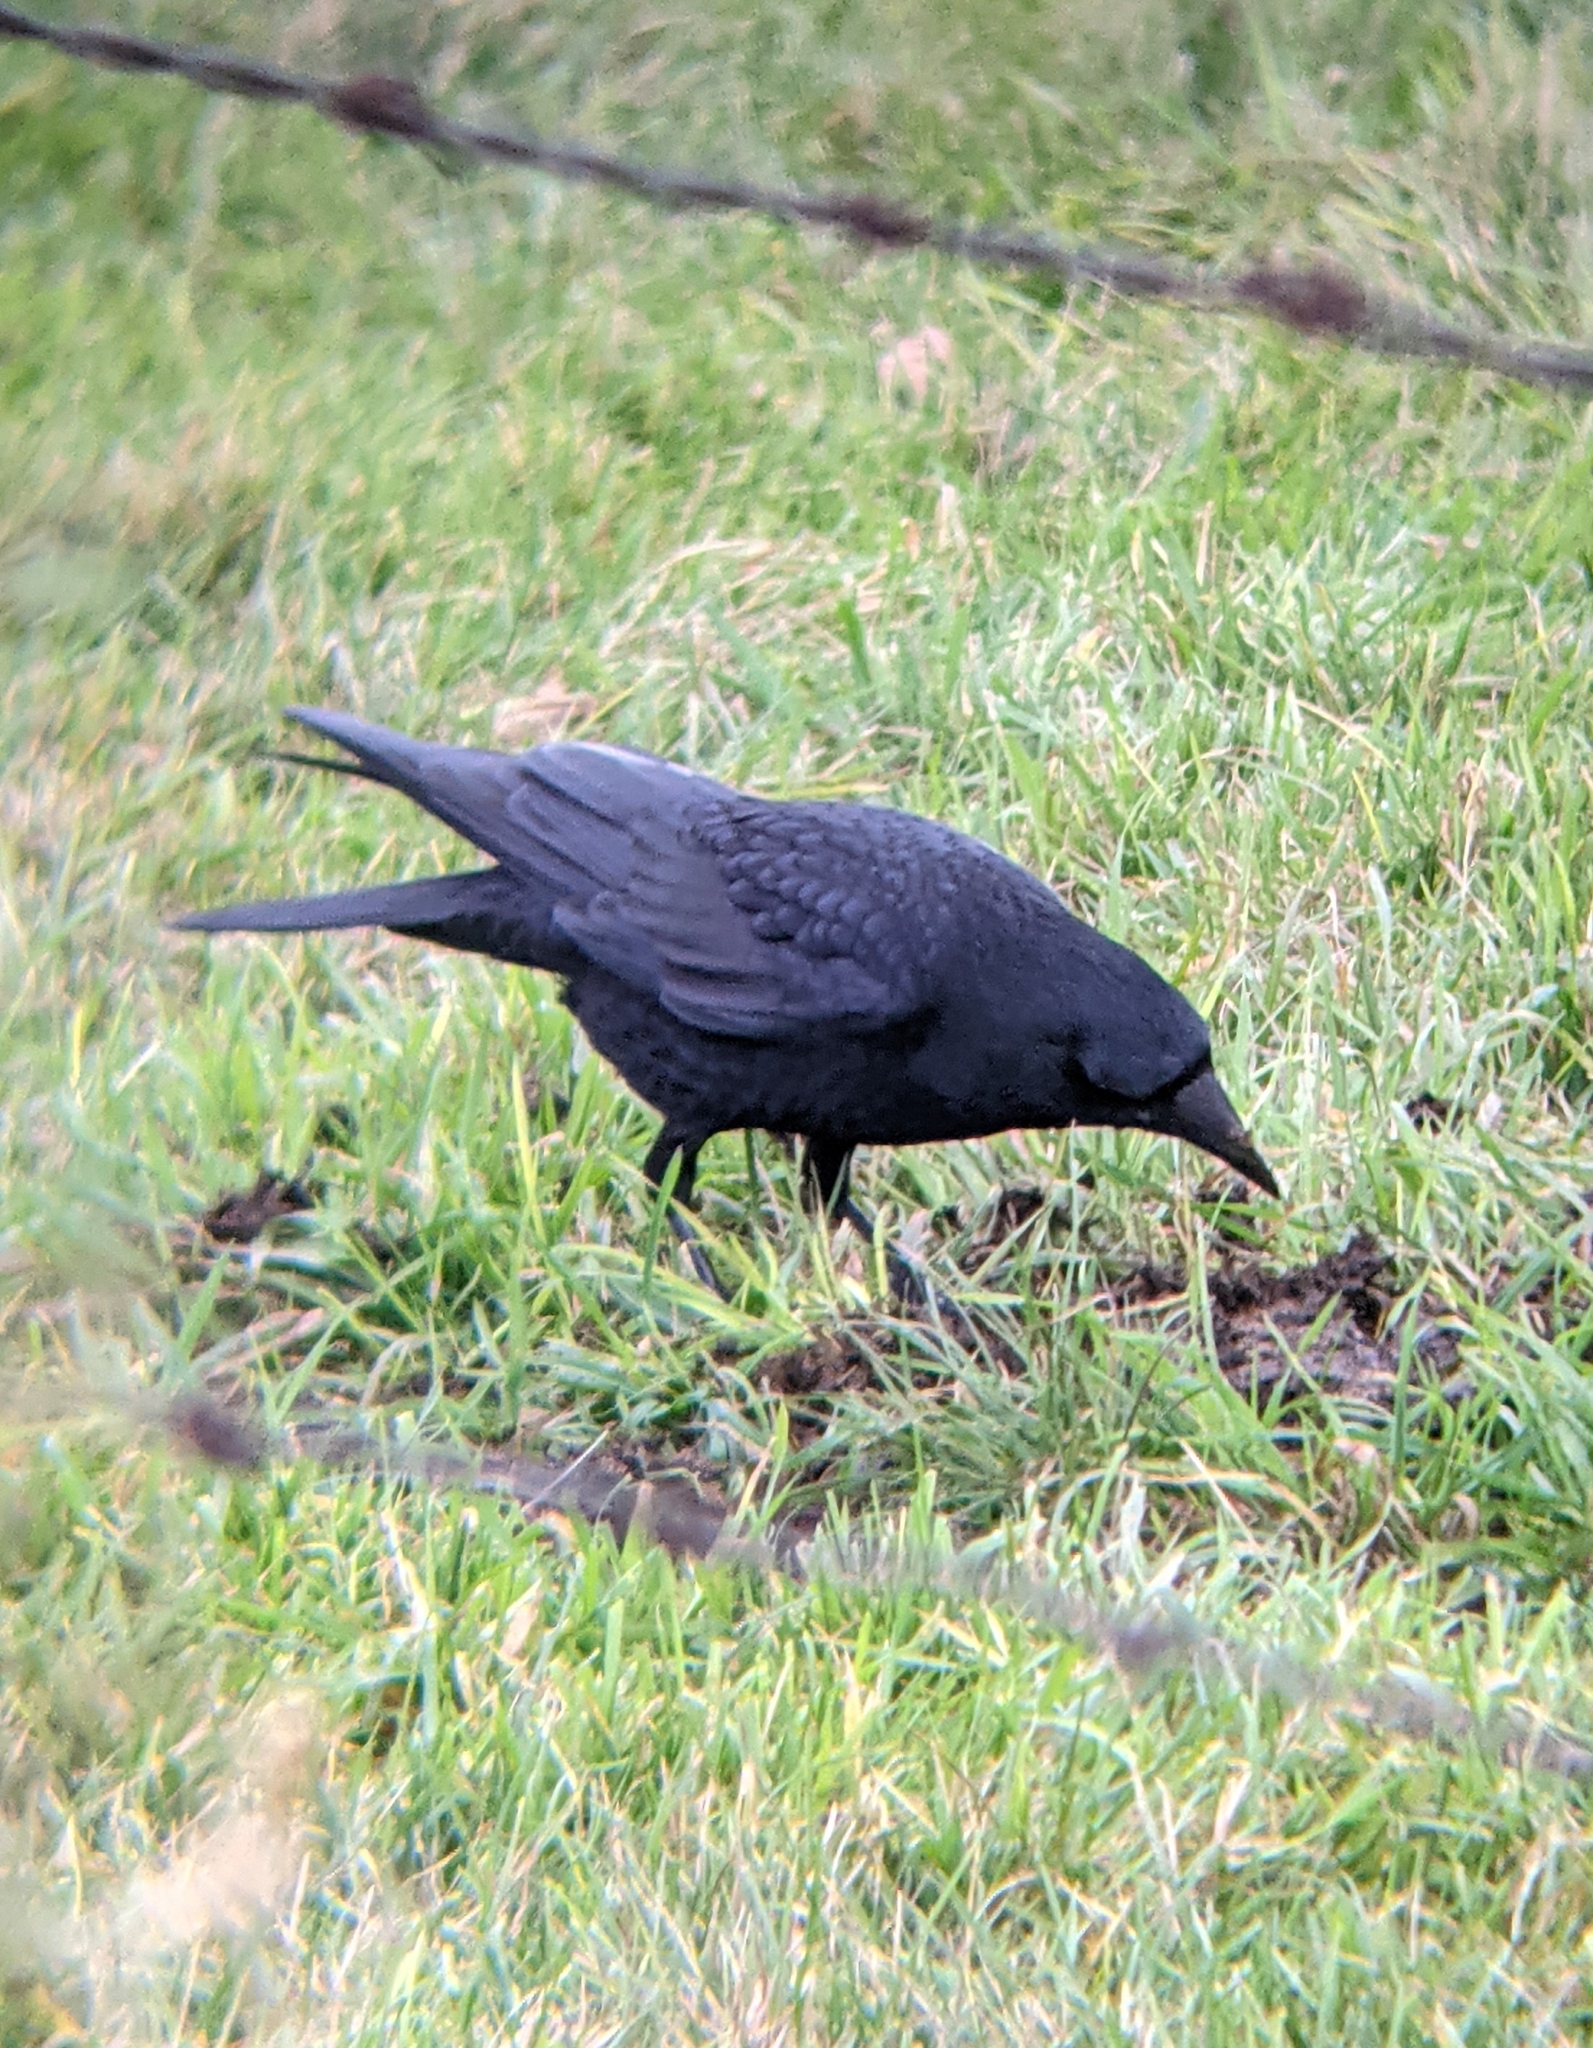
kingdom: Animalia
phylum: Chordata
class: Aves
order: Passeriformes
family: Corvidae
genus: Corvus
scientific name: Corvus corone
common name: Carrion crow
